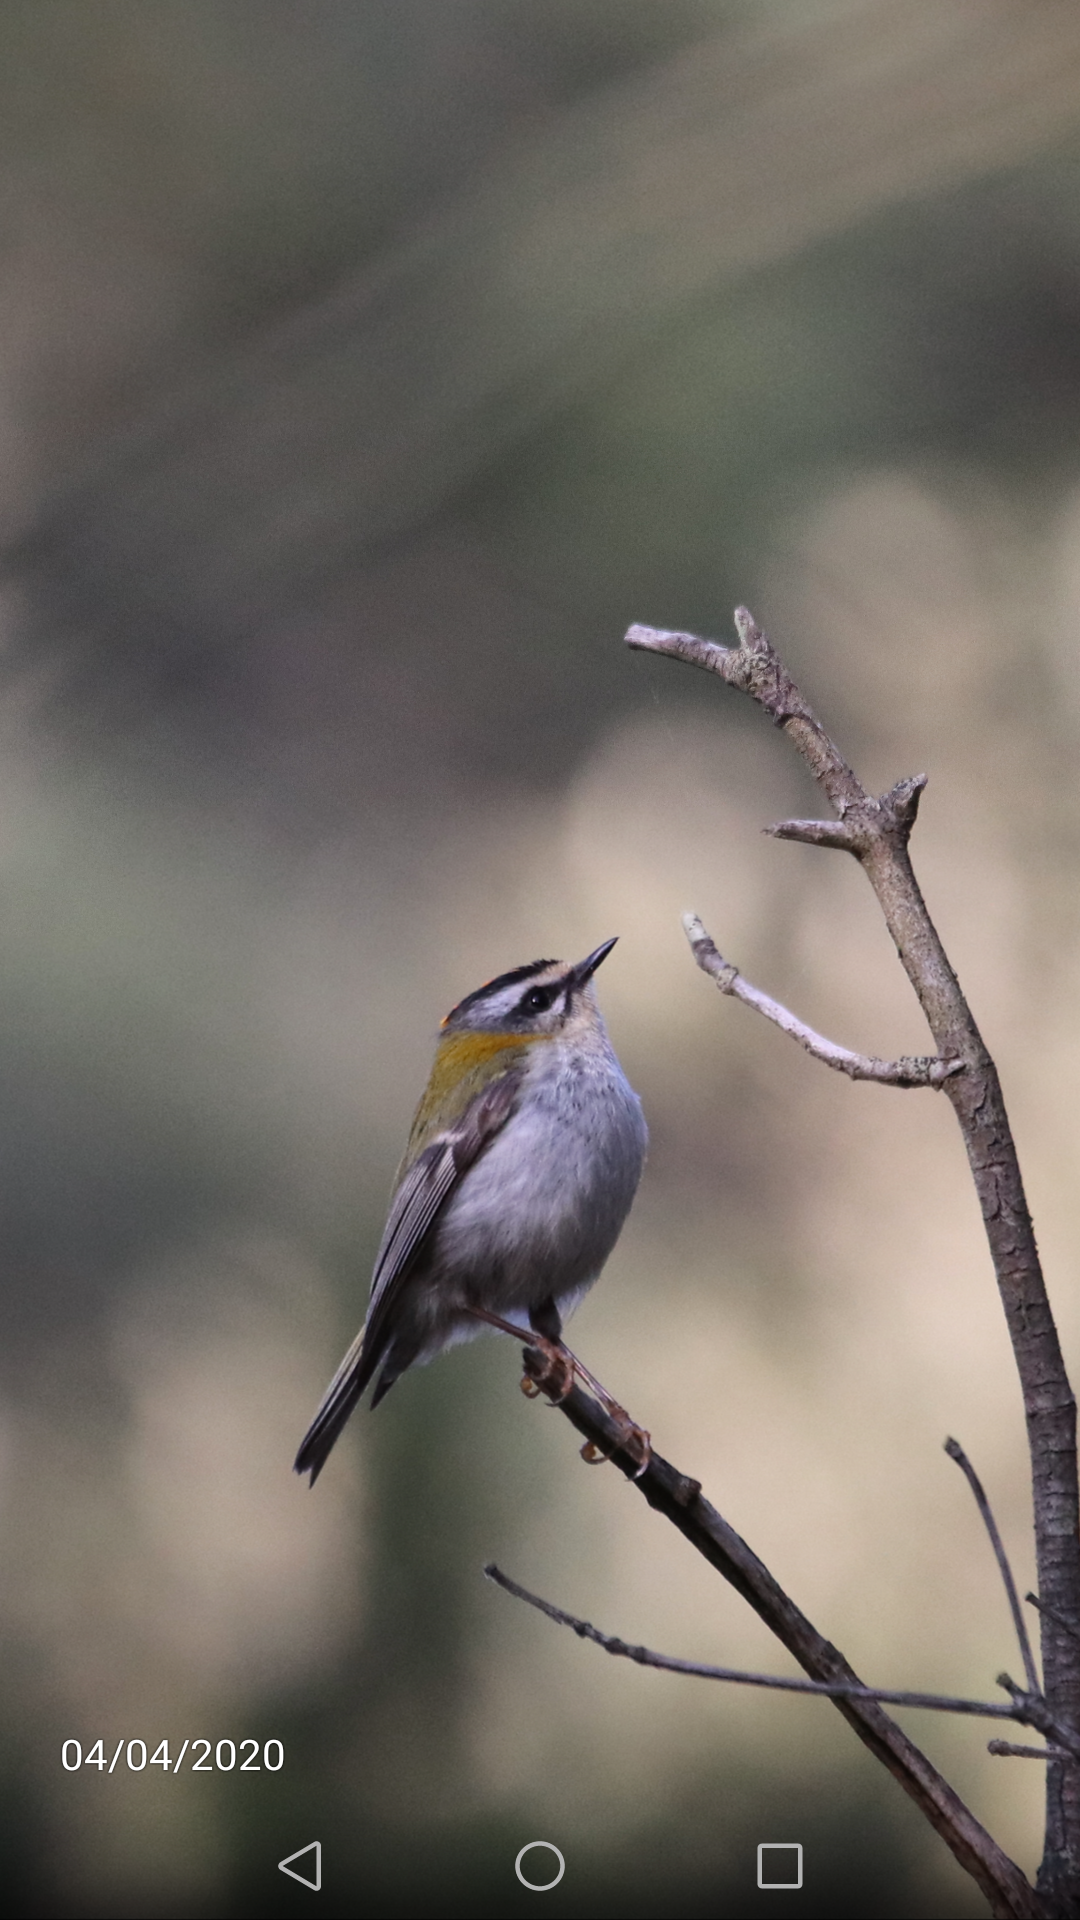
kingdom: Animalia
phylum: Chordata
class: Aves
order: Passeriformes
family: Regulidae
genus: Regulus
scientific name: Regulus ignicapilla
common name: Firecrest
